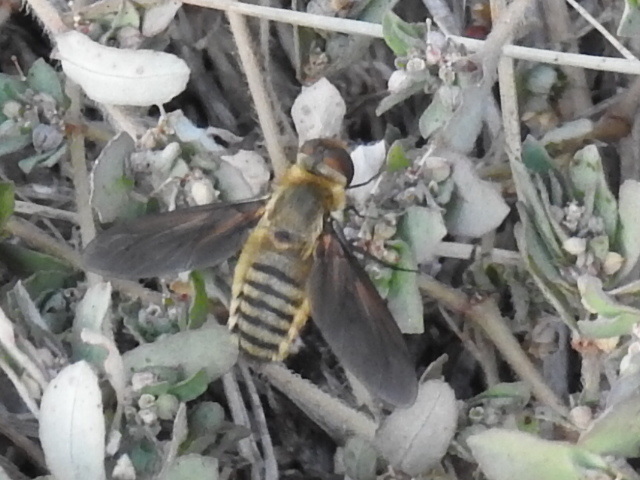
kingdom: Animalia
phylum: Arthropoda
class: Insecta
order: Diptera
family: Bombyliidae
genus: Poecilanthrax
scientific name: Poecilanthrax lucifer
